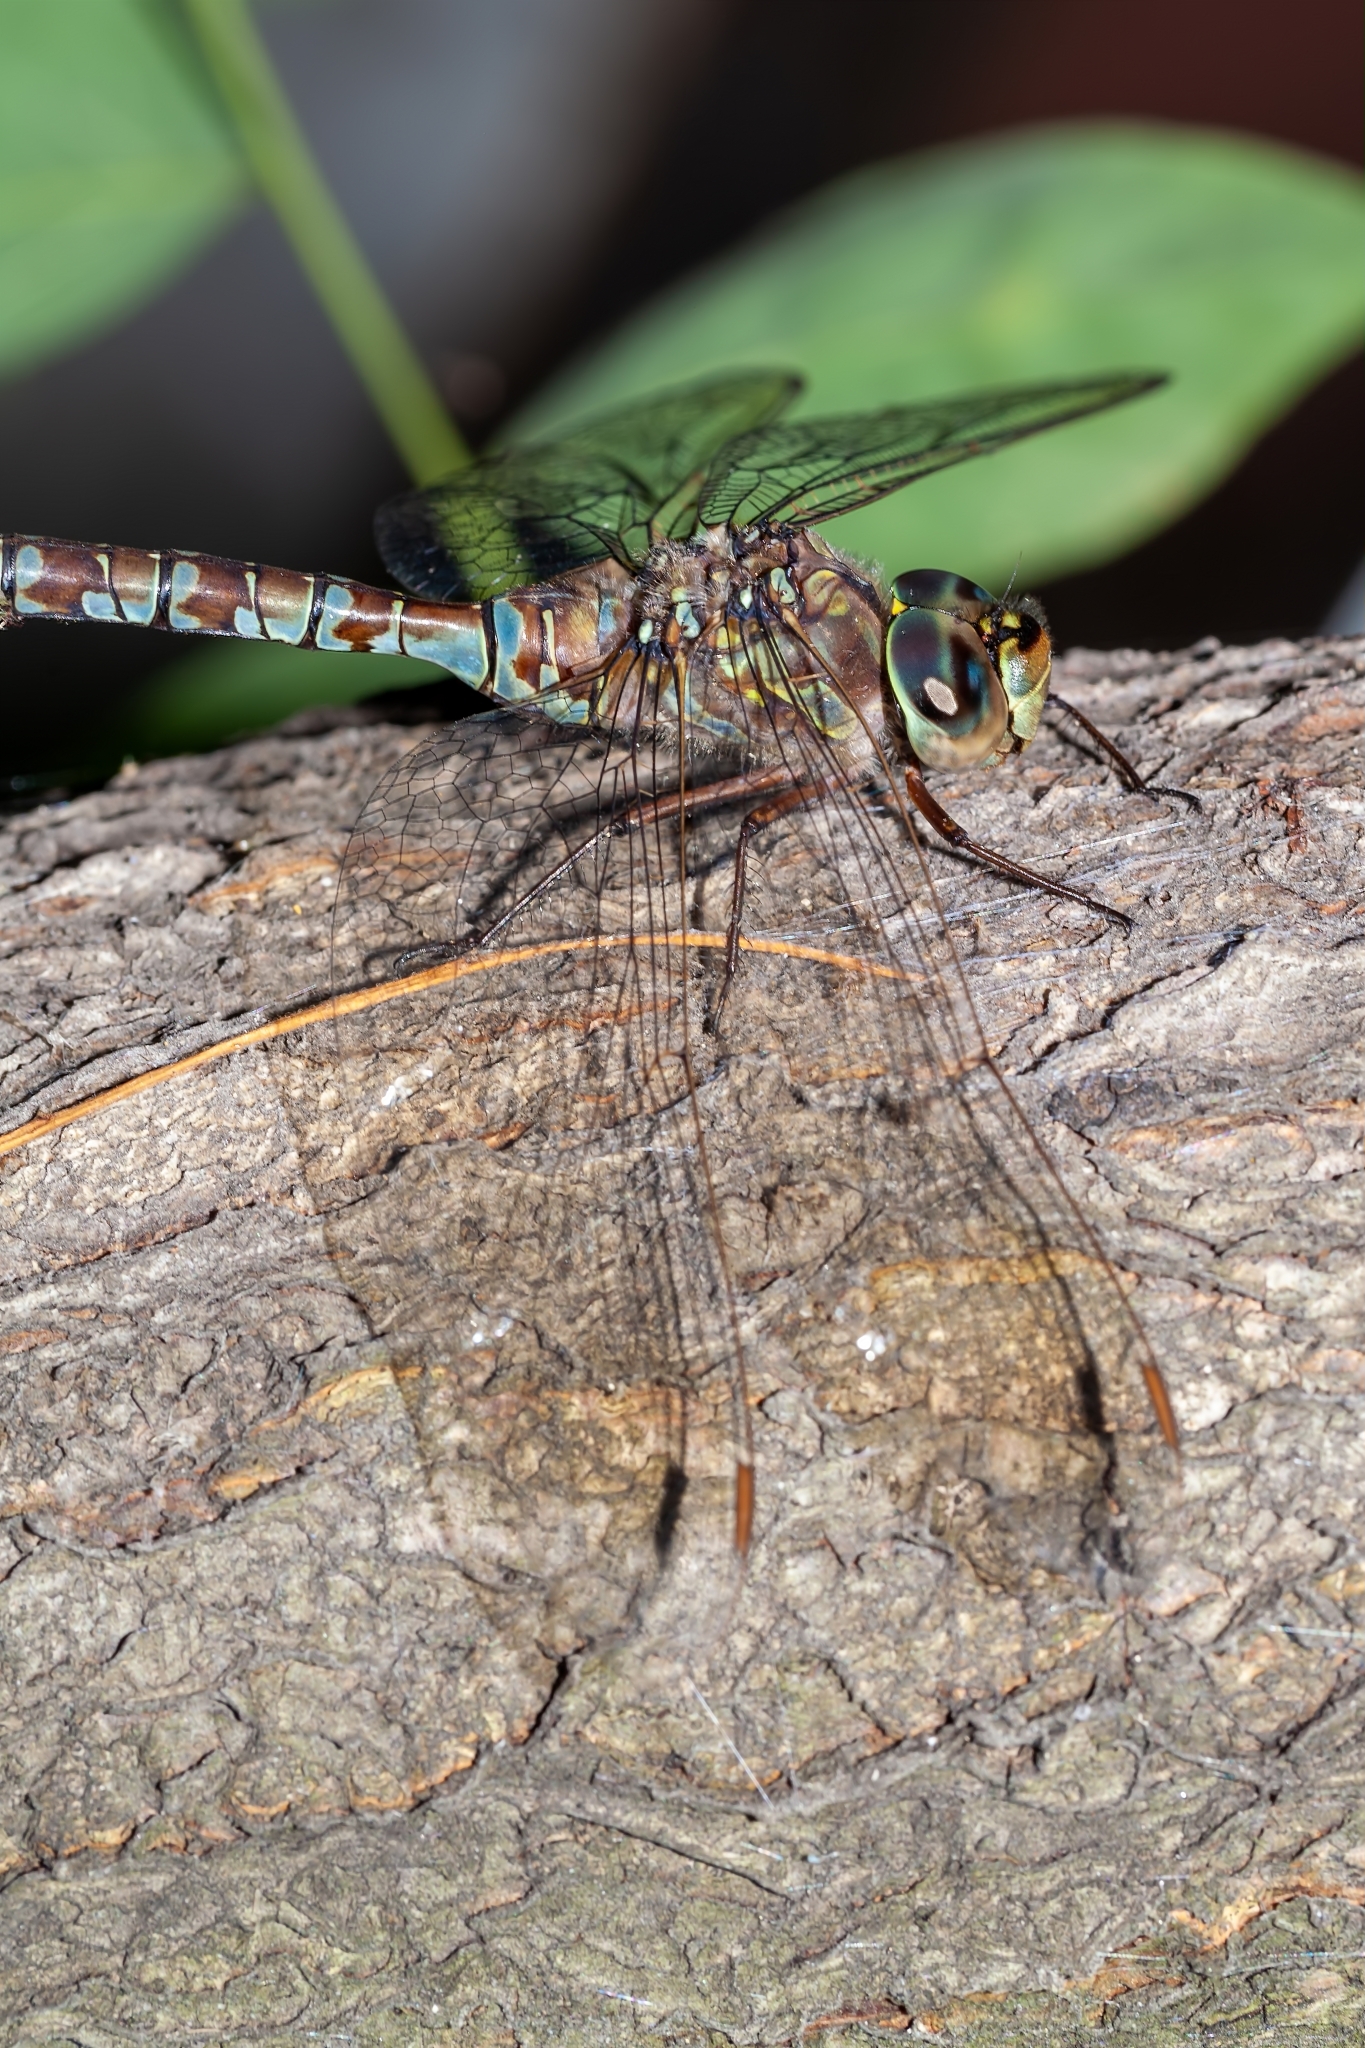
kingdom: Animalia
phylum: Arthropoda
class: Insecta
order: Odonata
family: Aeshnidae
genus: Aeshna
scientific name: Aeshna canadensis
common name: Canada darner
